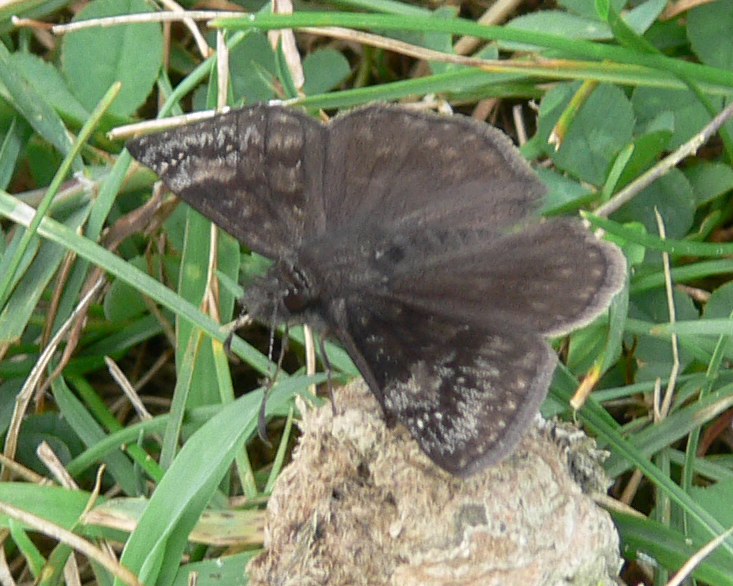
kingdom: Animalia
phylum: Arthropoda
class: Insecta
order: Lepidoptera
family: Hesperiidae
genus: Erynnis
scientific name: Erynnis baptisiae
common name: Wild indigo duskywing
